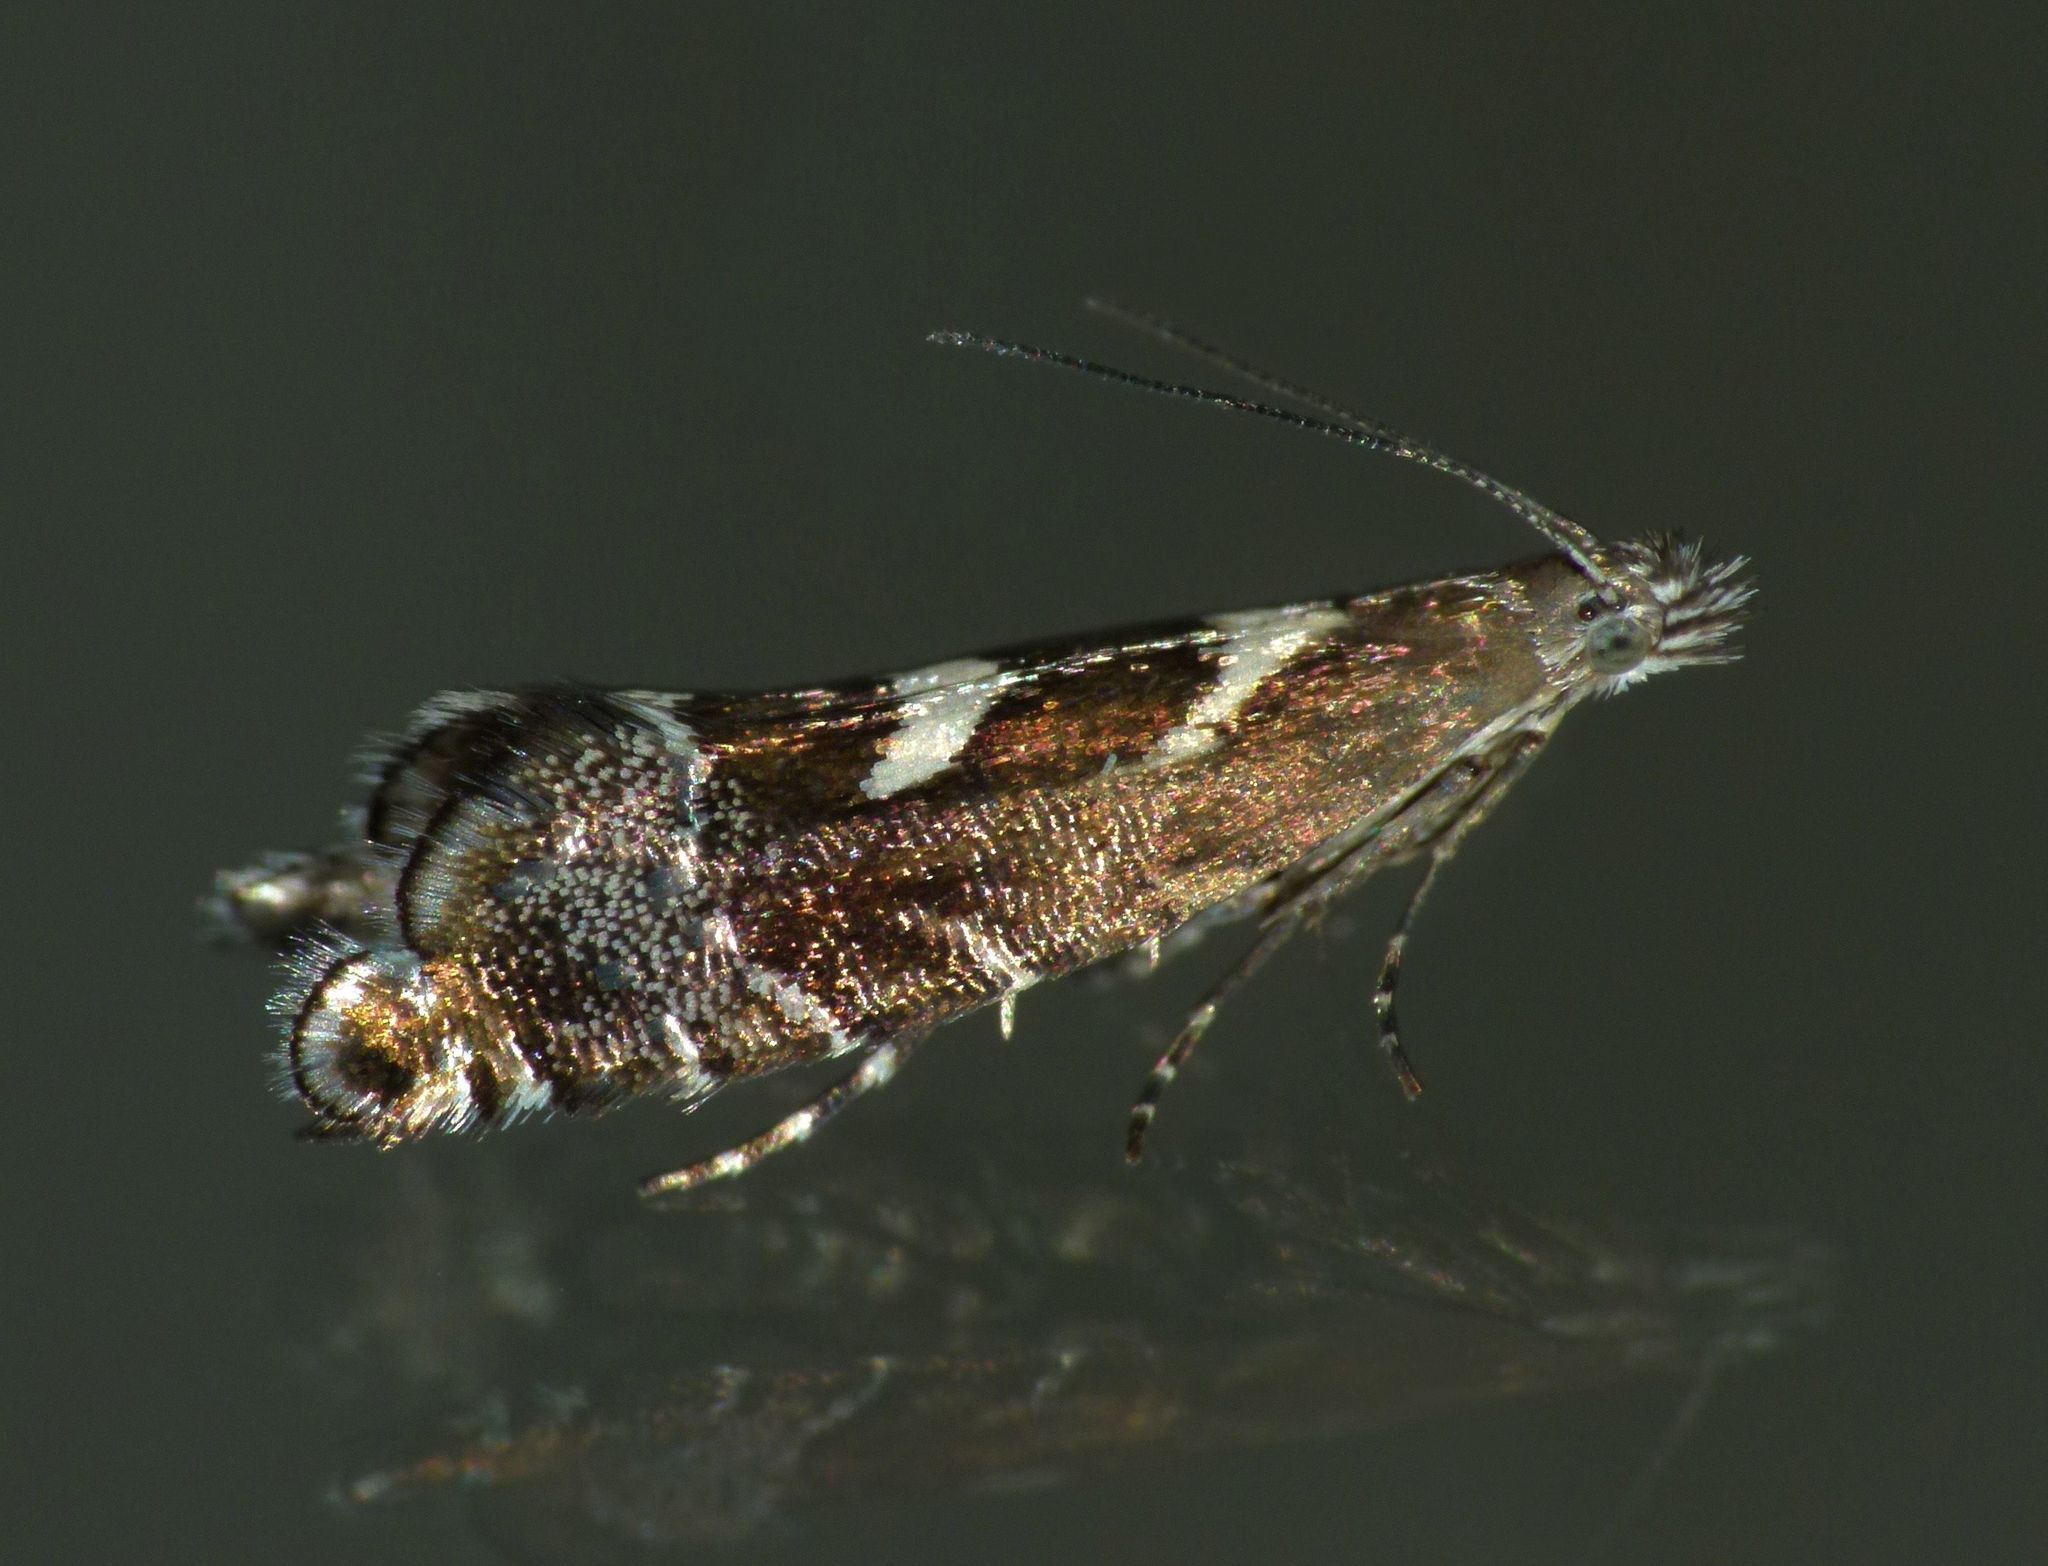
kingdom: Animalia
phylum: Arthropoda
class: Insecta
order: Lepidoptera
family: Glyphipterigidae
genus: Glyphipterix
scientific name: Glyphipterix asteronota
